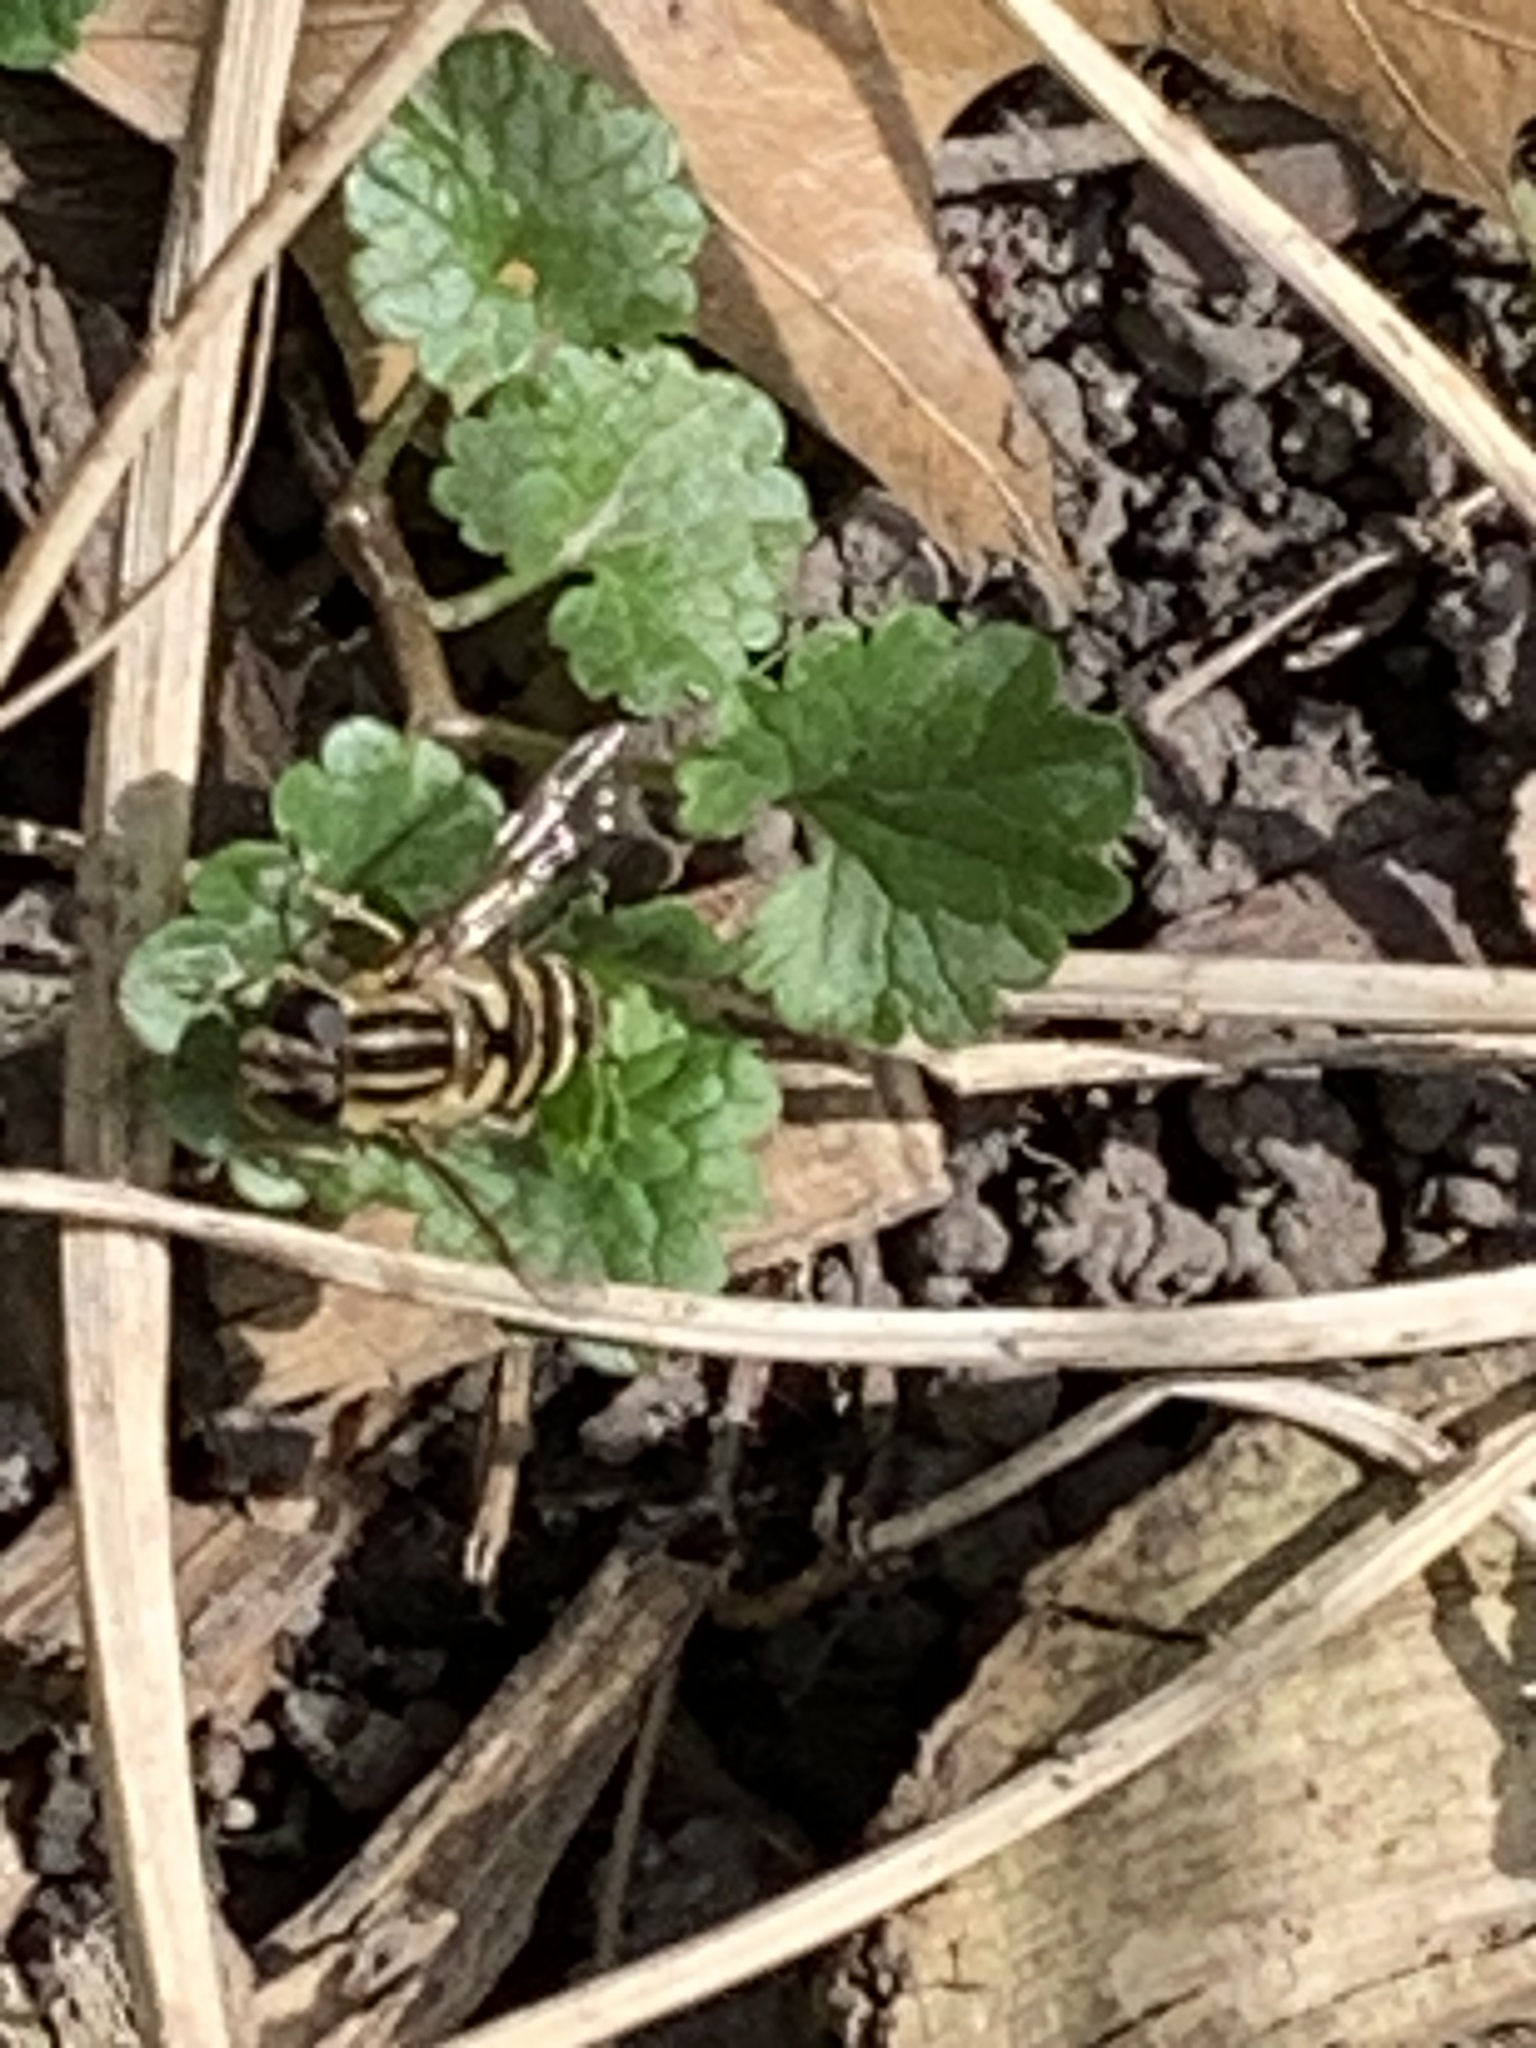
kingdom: Animalia
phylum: Arthropoda
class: Insecta
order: Diptera
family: Syrphidae
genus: Helophilus
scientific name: Helophilus fasciatus
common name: Narrow-headed marsh fly
